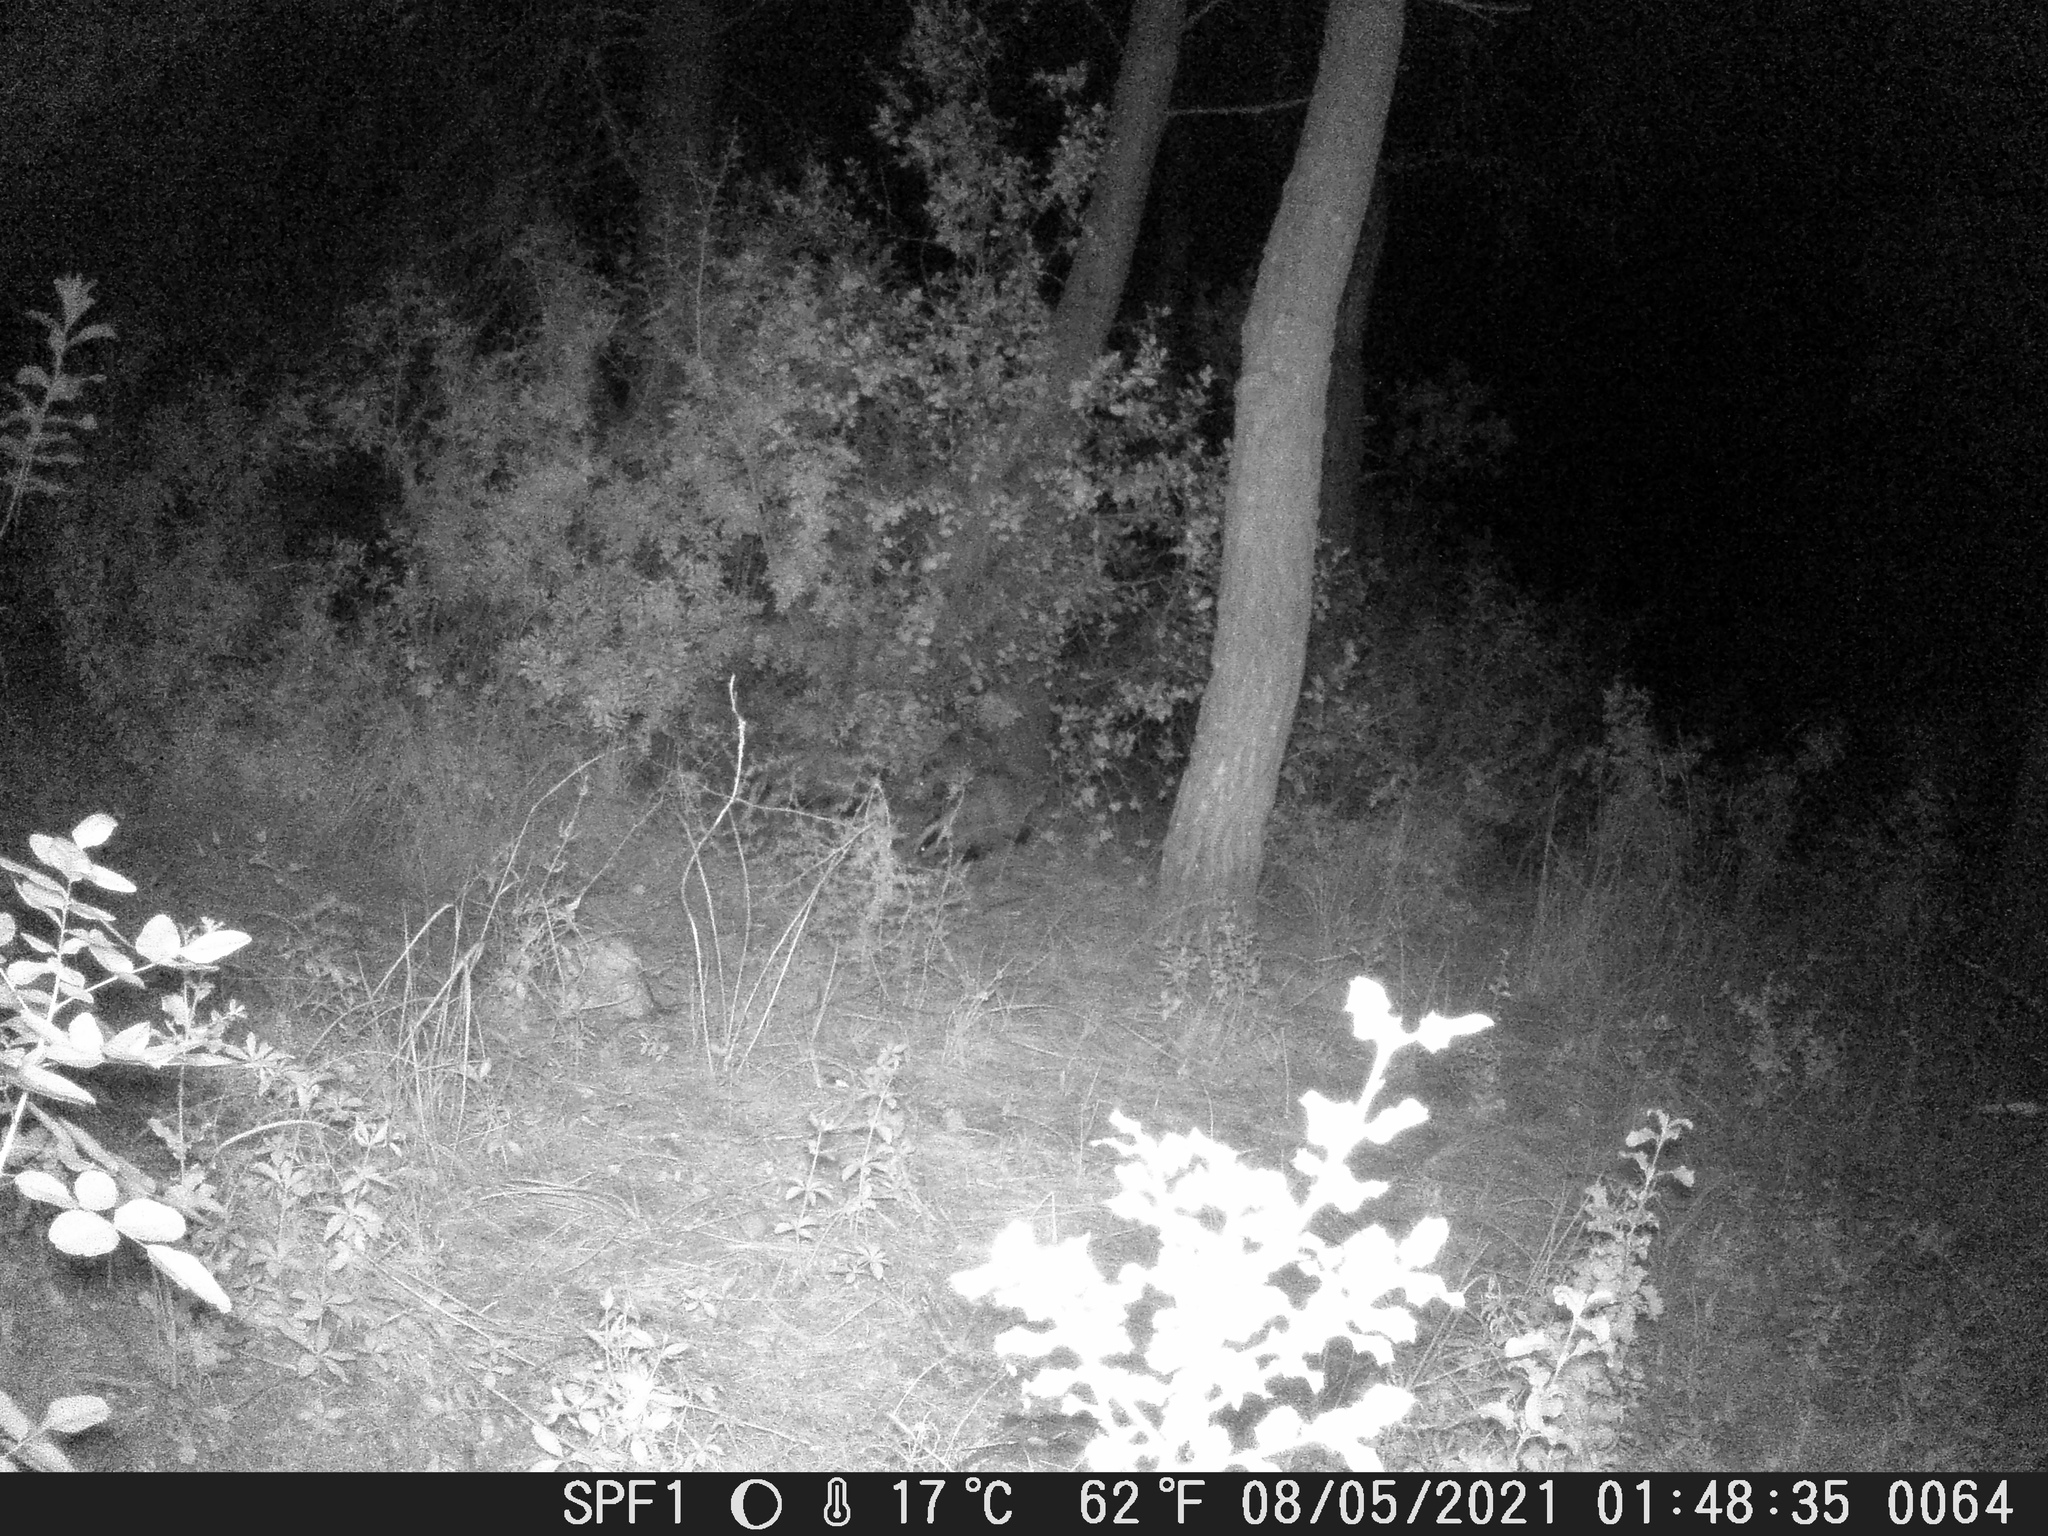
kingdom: Animalia
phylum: Chordata
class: Mammalia
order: Carnivora
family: Mustelidae
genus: Meles
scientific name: Meles meles
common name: Eurasian badger
